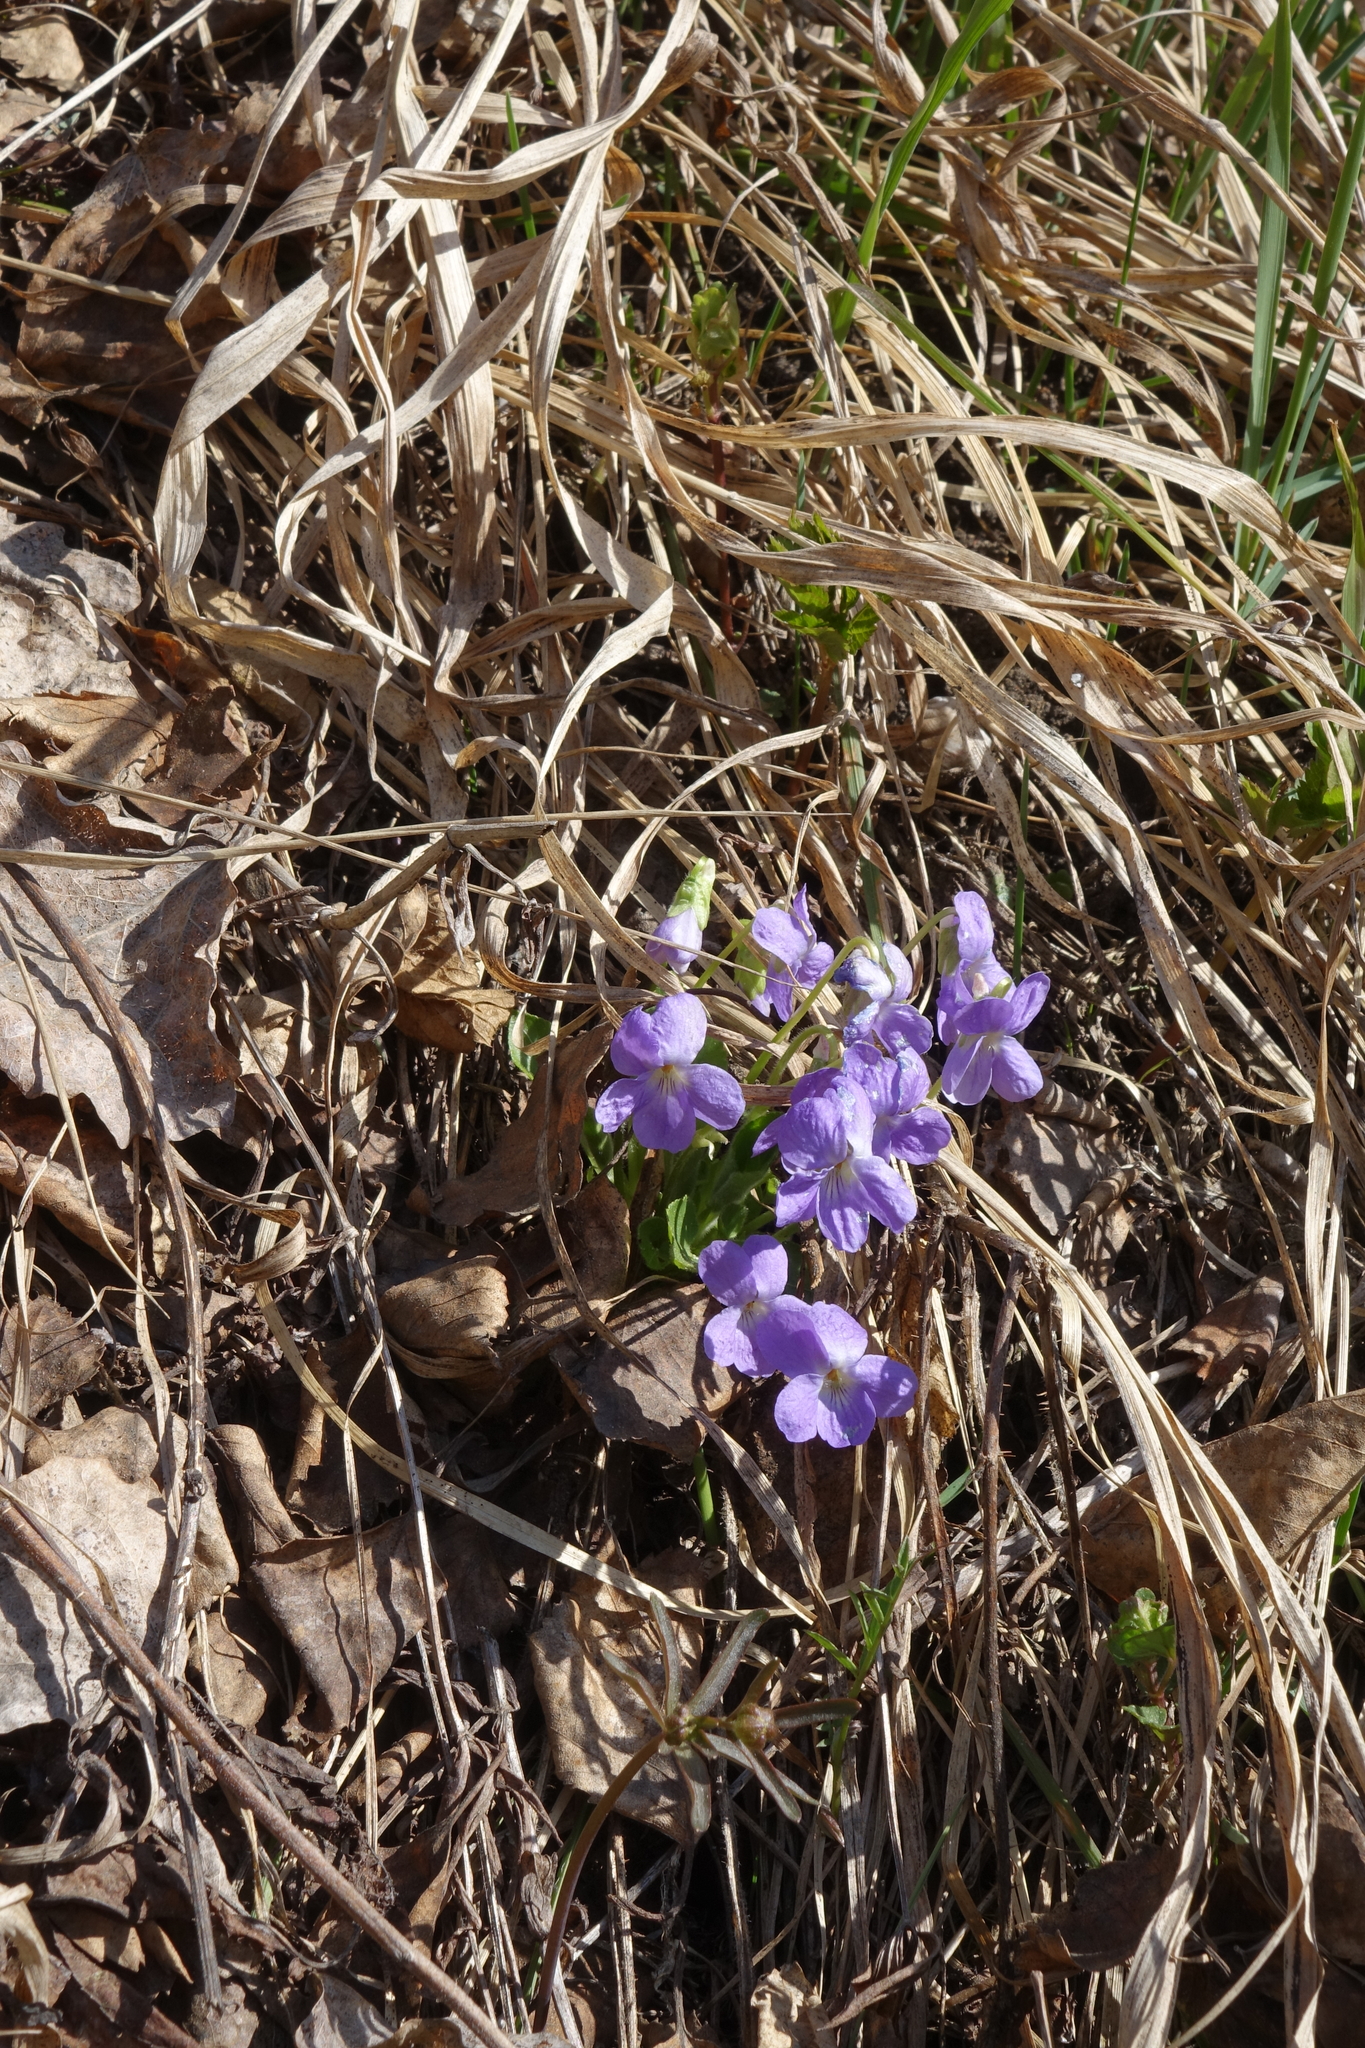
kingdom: Plantae
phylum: Tracheophyta
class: Magnoliopsida
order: Malpighiales
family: Violaceae
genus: Viola
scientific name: Viola hirta
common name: Hairy violet
